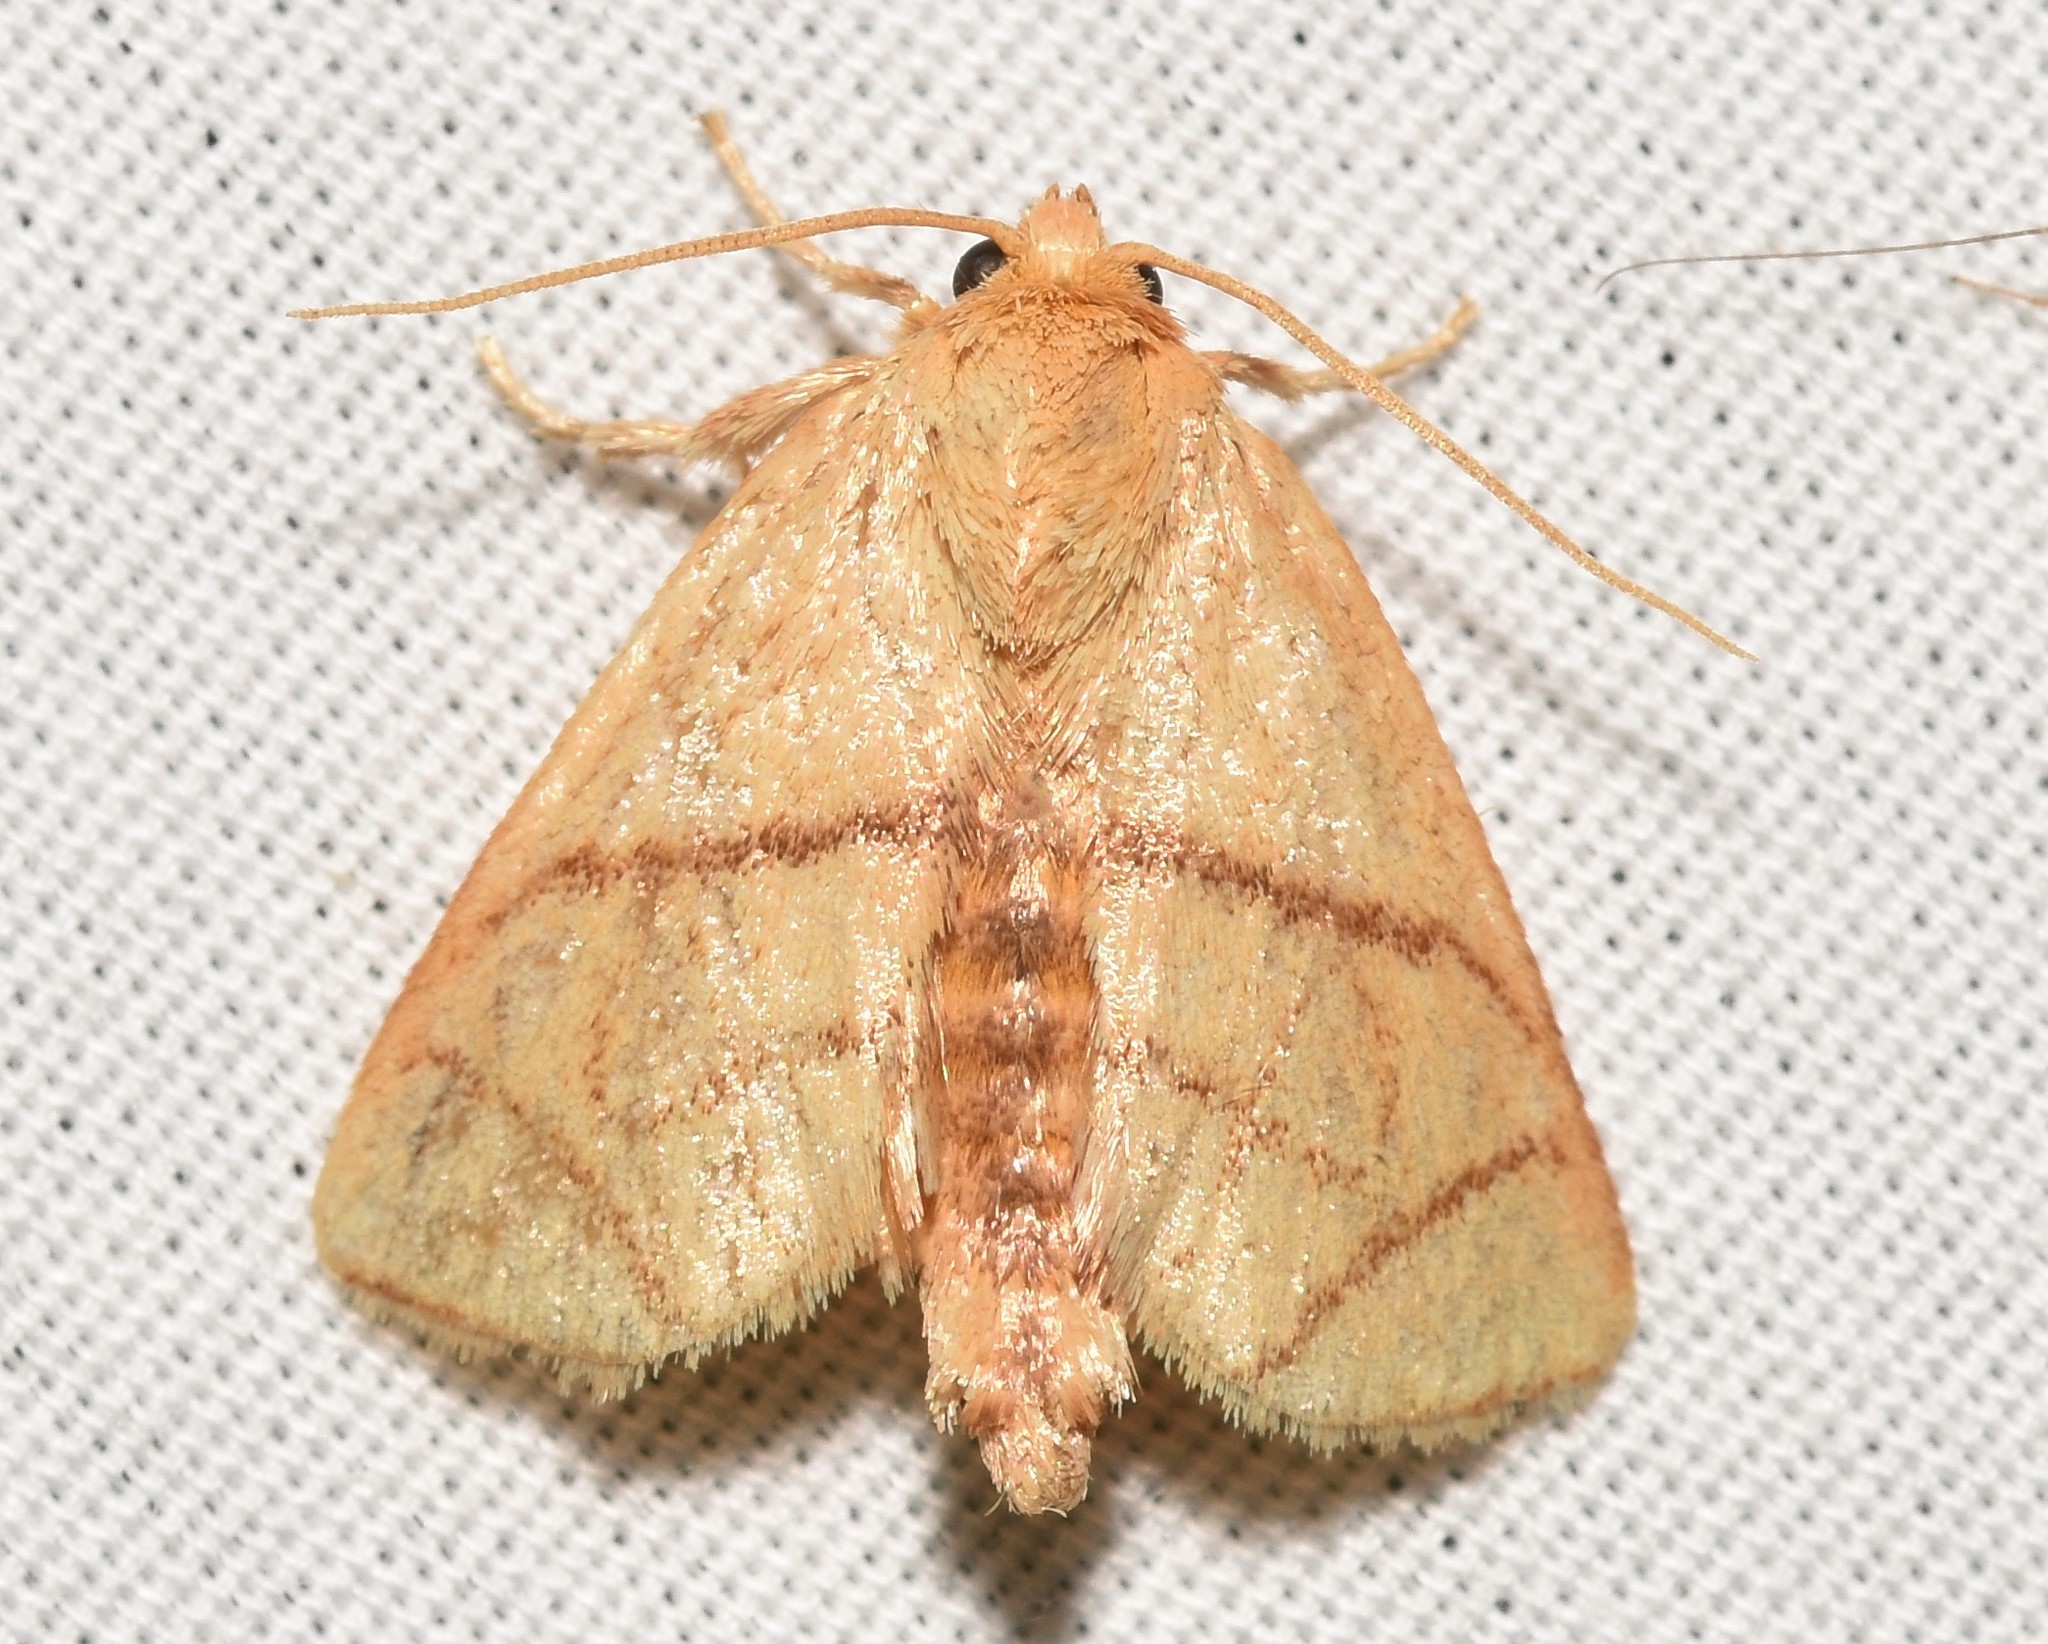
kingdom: Animalia
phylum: Arthropoda
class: Insecta
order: Lepidoptera
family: Limacodidae
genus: Apoda
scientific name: Apoda y-inversa
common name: Yellow-collared slug moth
